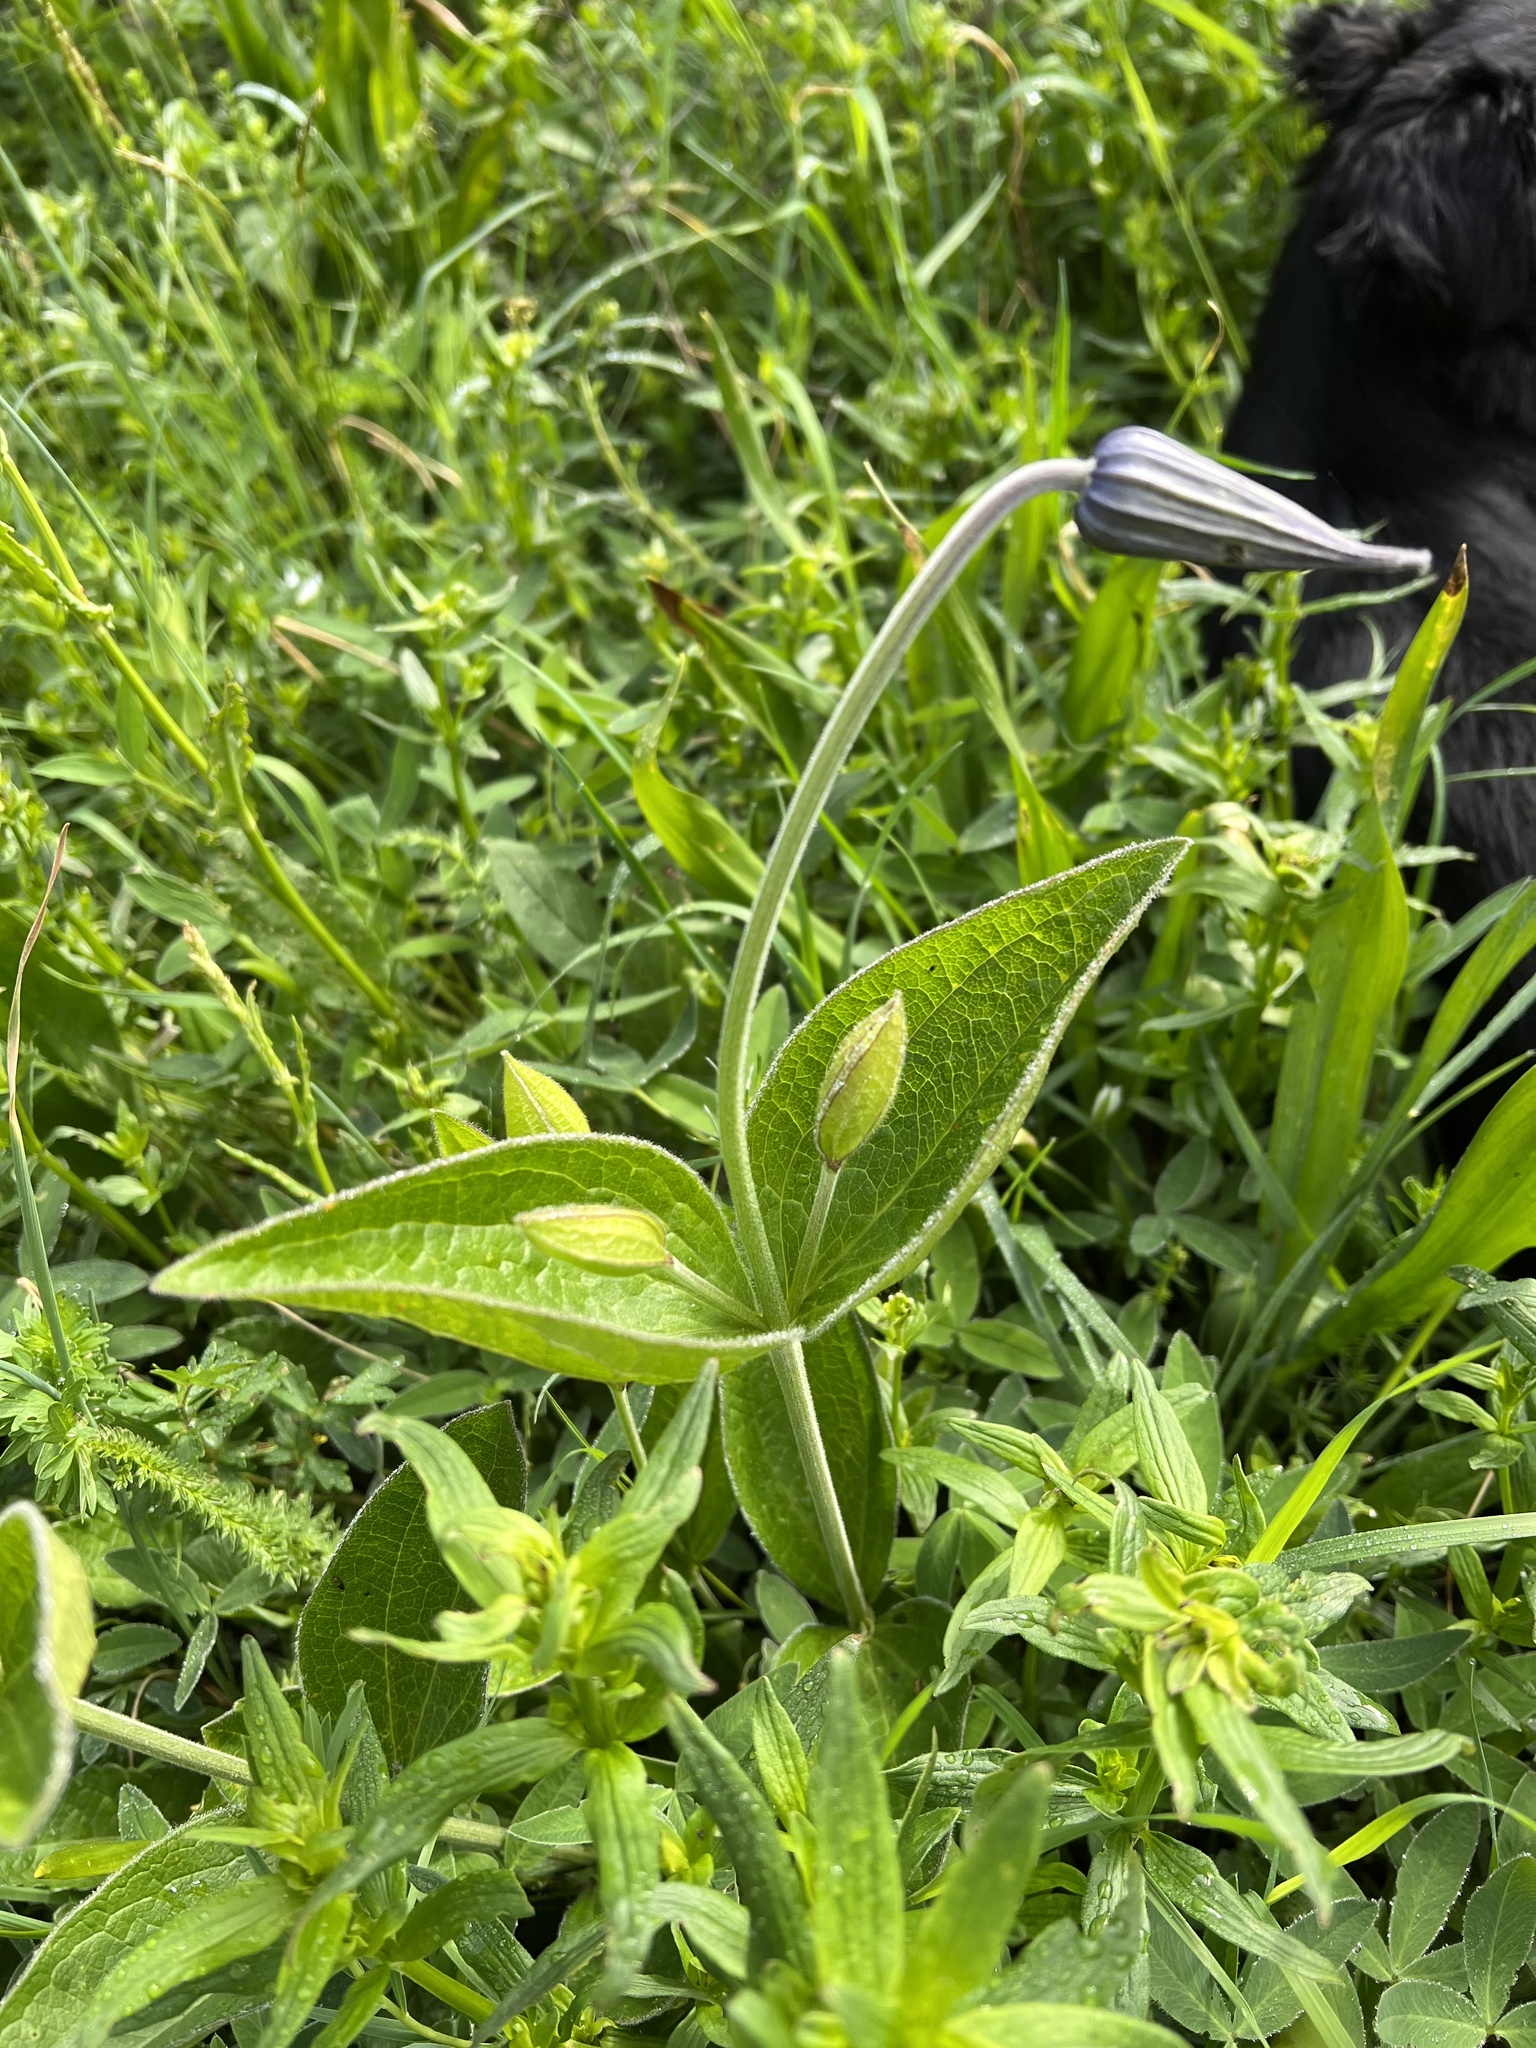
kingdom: Plantae
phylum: Tracheophyta
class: Magnoliopsida
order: Ranunculales
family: Ranunculaceae
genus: Clematis
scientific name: Clematis integrifolia
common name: Solitary clematis
